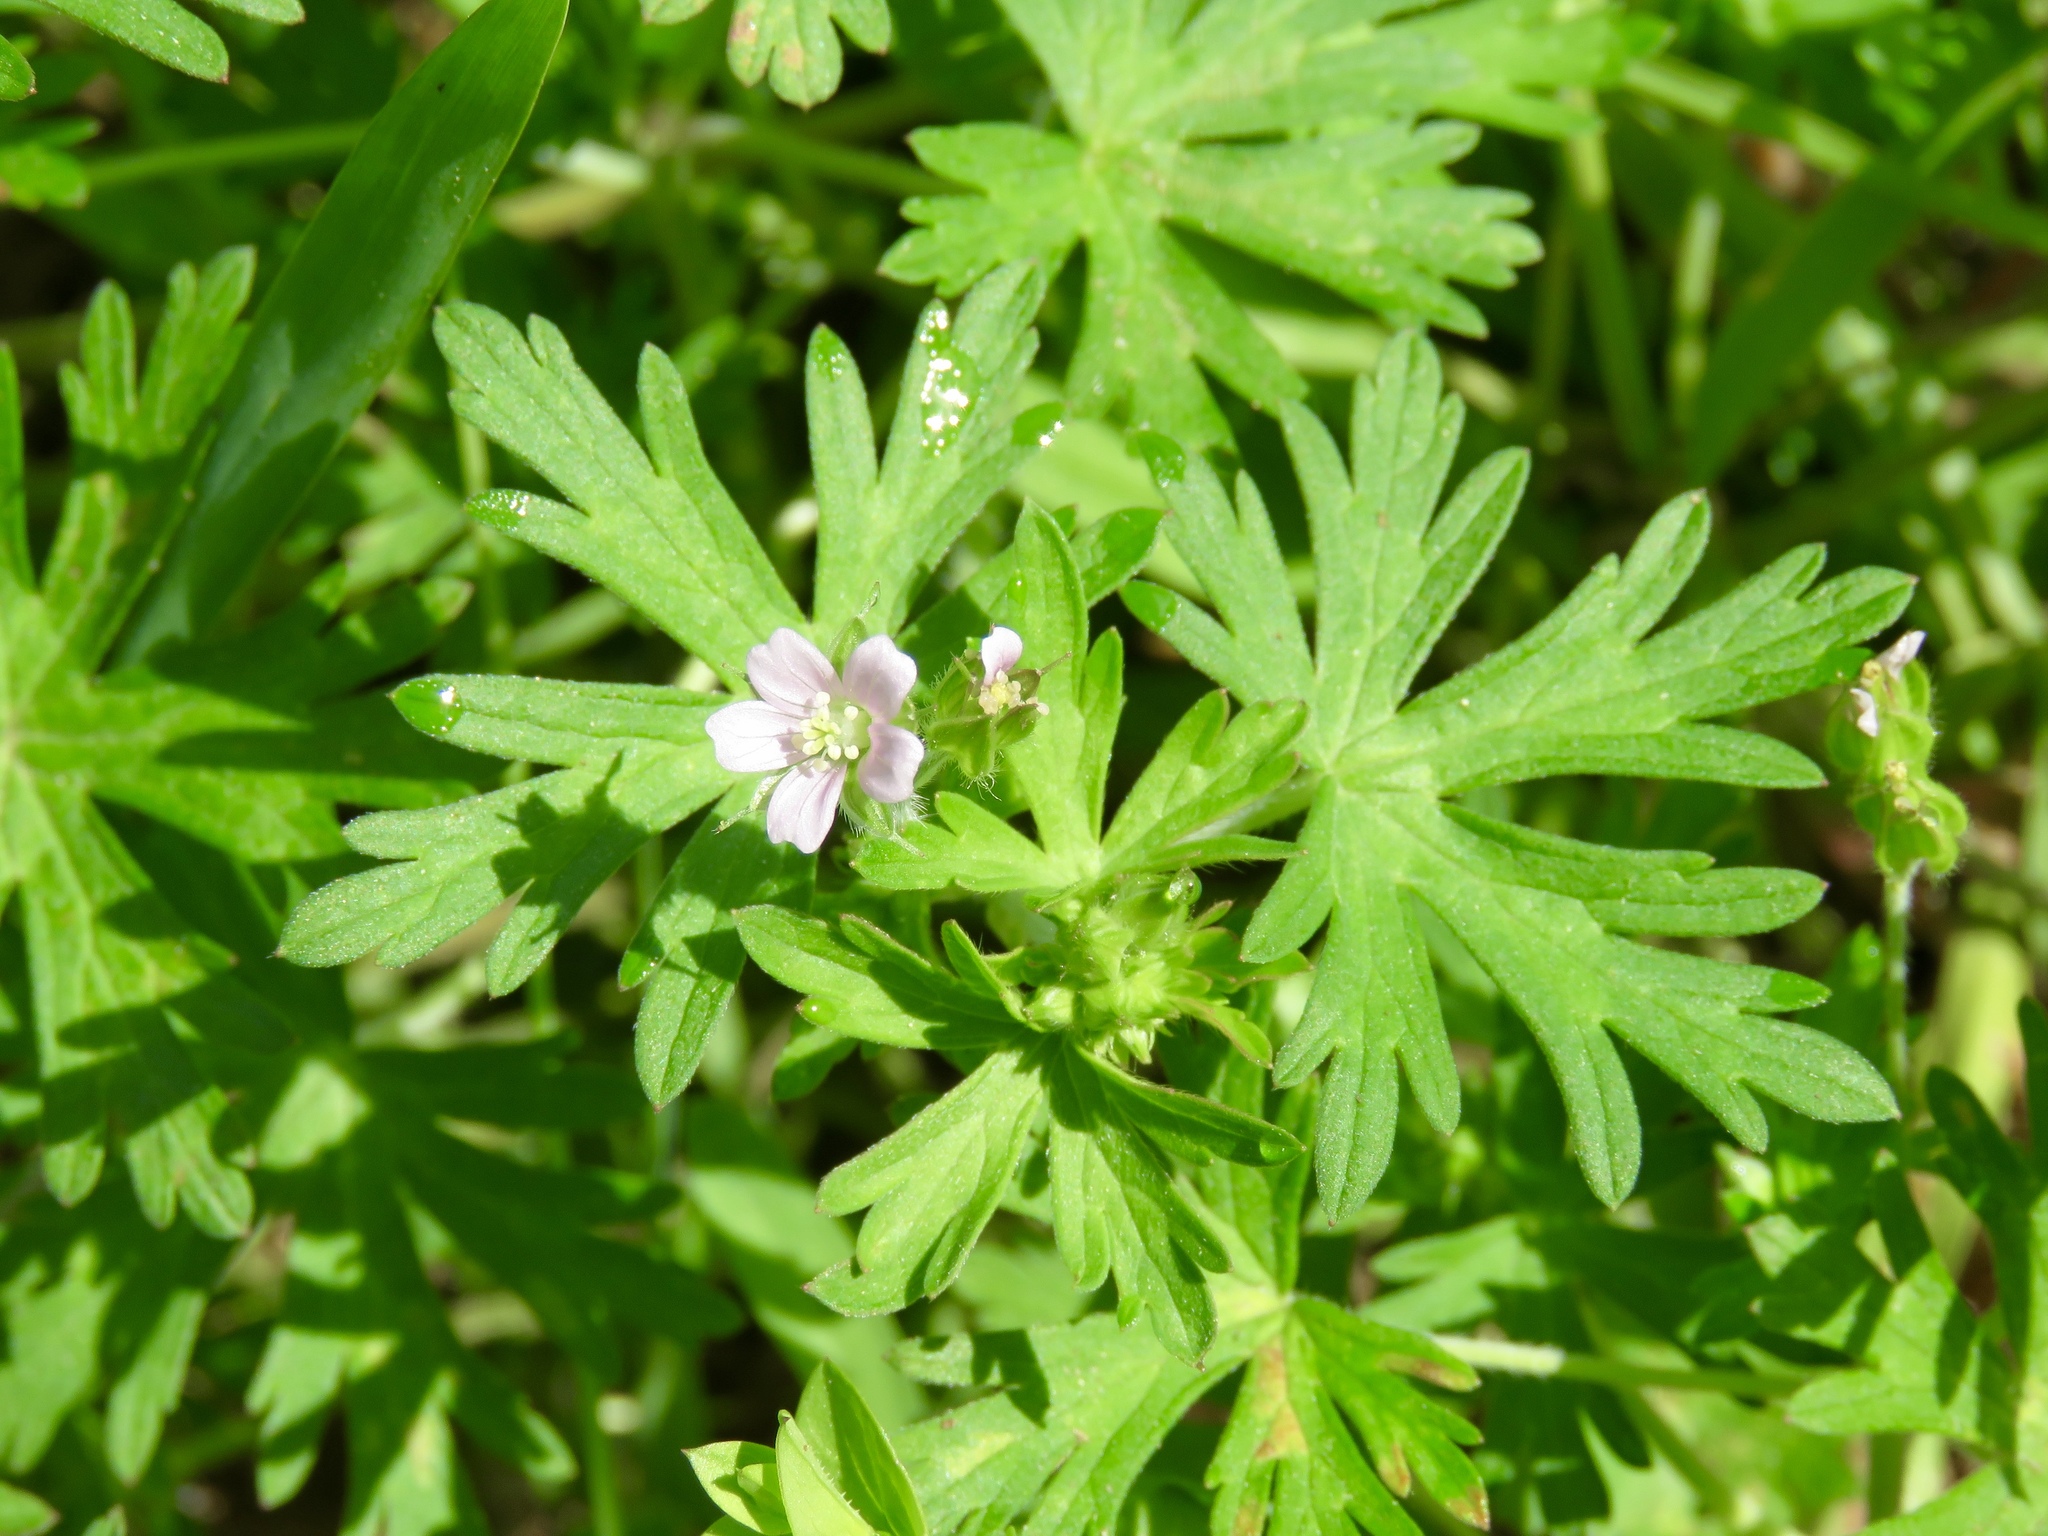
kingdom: Plantae
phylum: Tracheophyta
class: Magnoliopsida
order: Geraniales
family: Geraniaceae
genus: Geranium
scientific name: Geranium carolinianum
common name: Carolina crane's-bill
